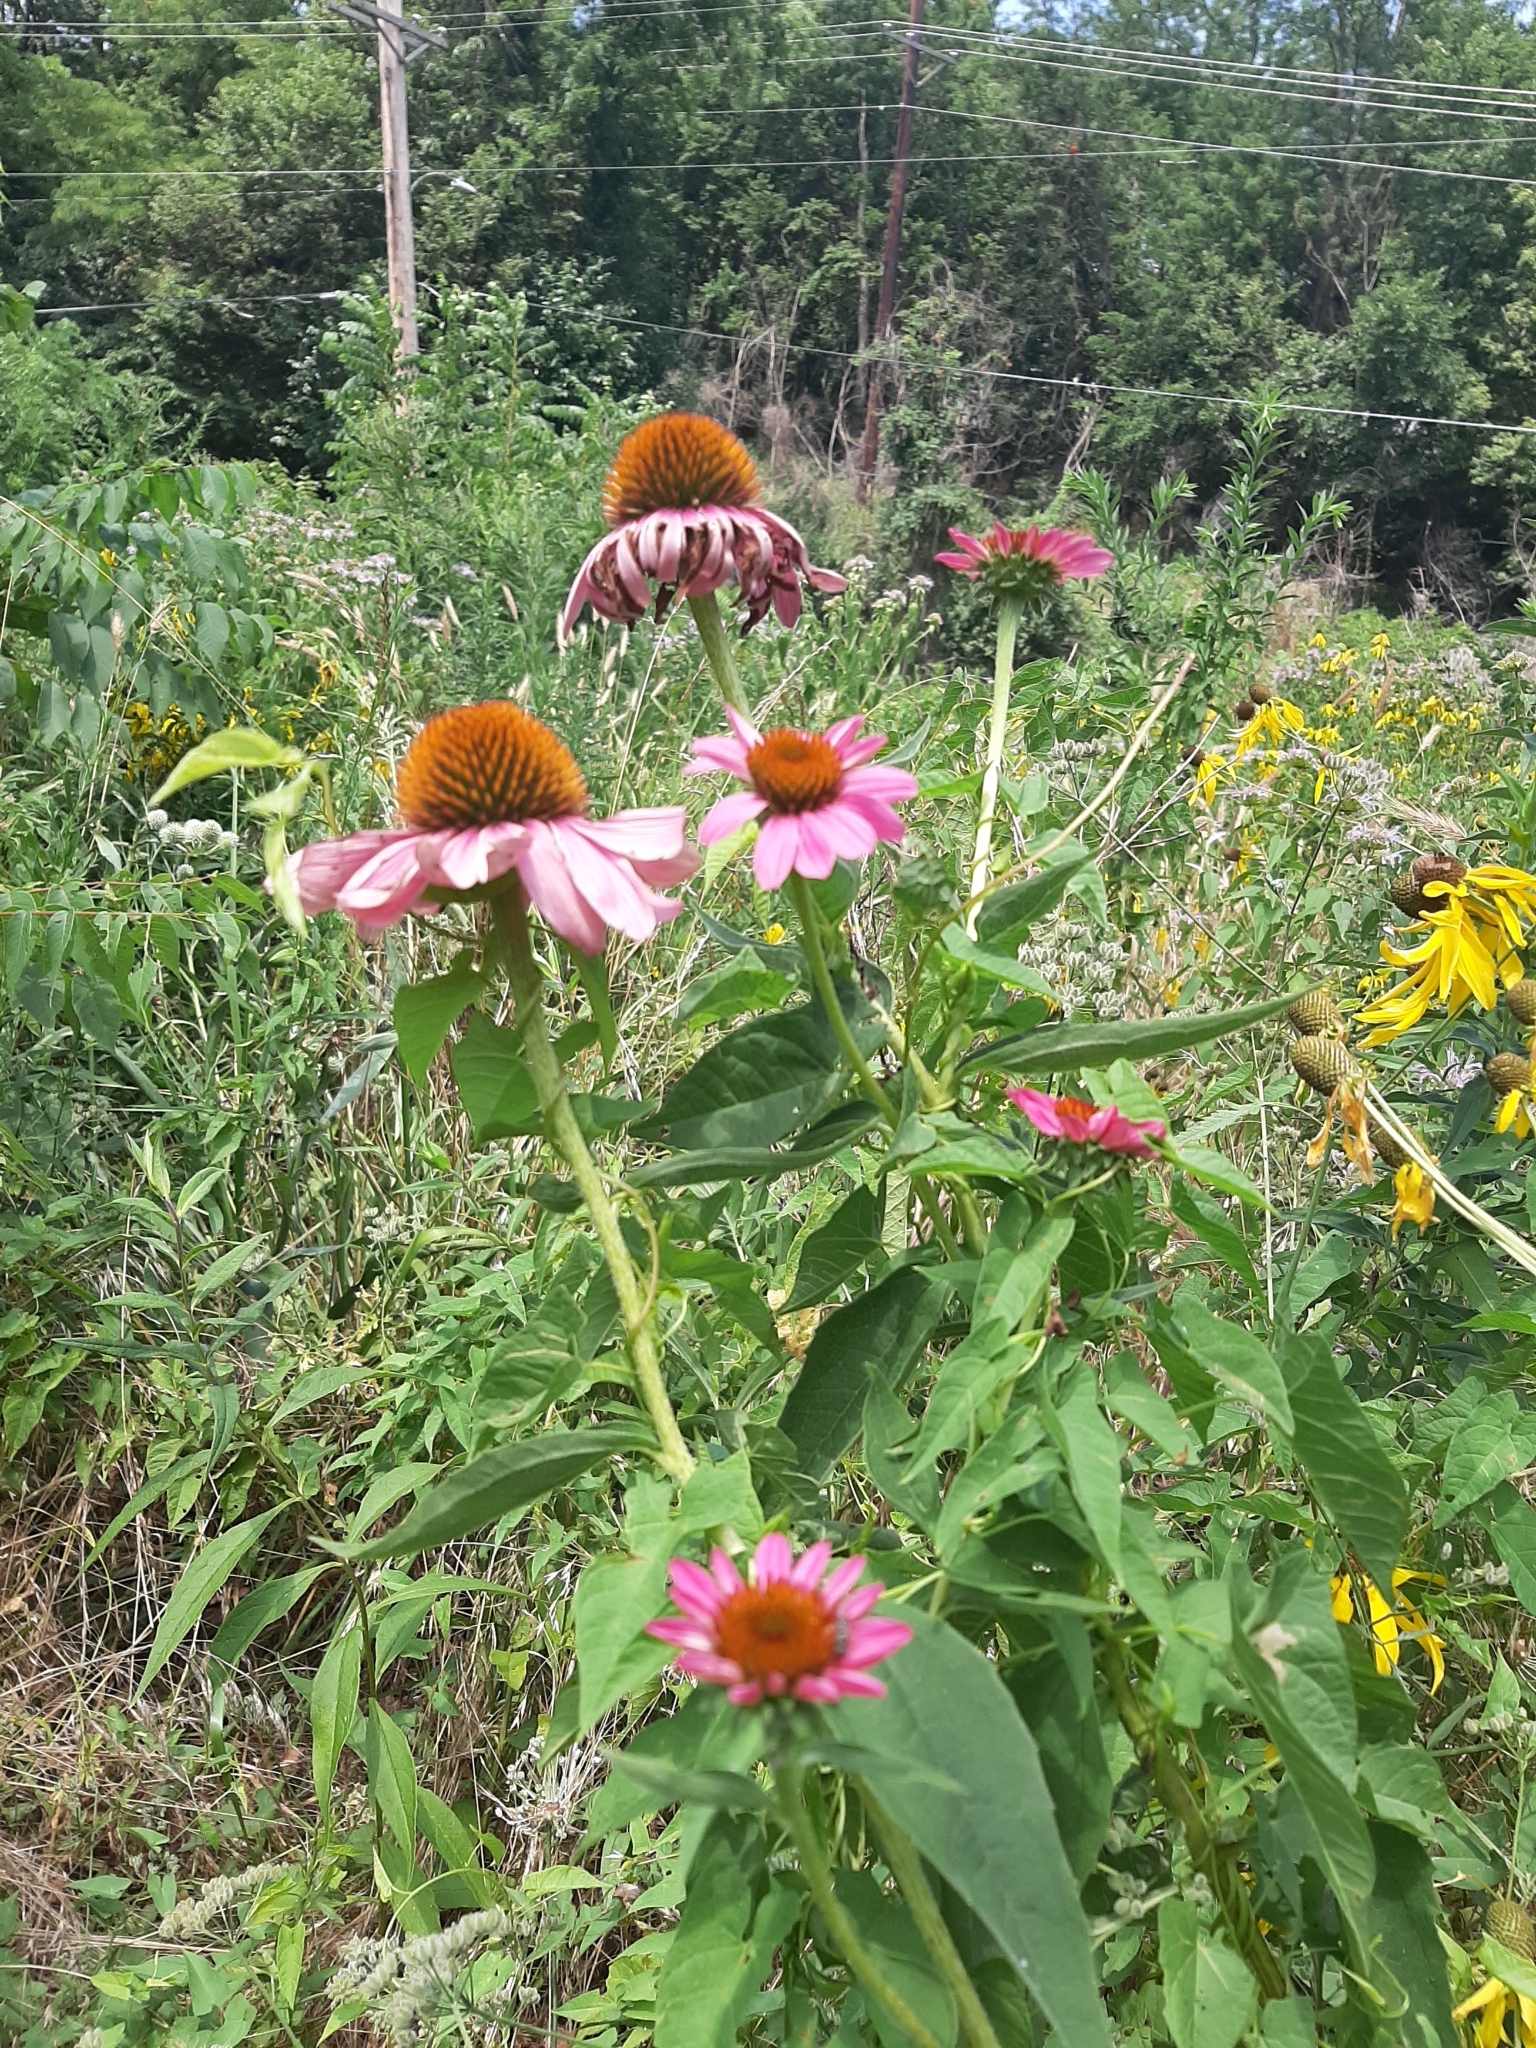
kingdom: Plantae
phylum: Tracheophyta
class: Magnoliopsida
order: Asterales
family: Asteraceae
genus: Echinacea
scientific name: Echinacea purpurea
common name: Broad-leaved purple coneflower
